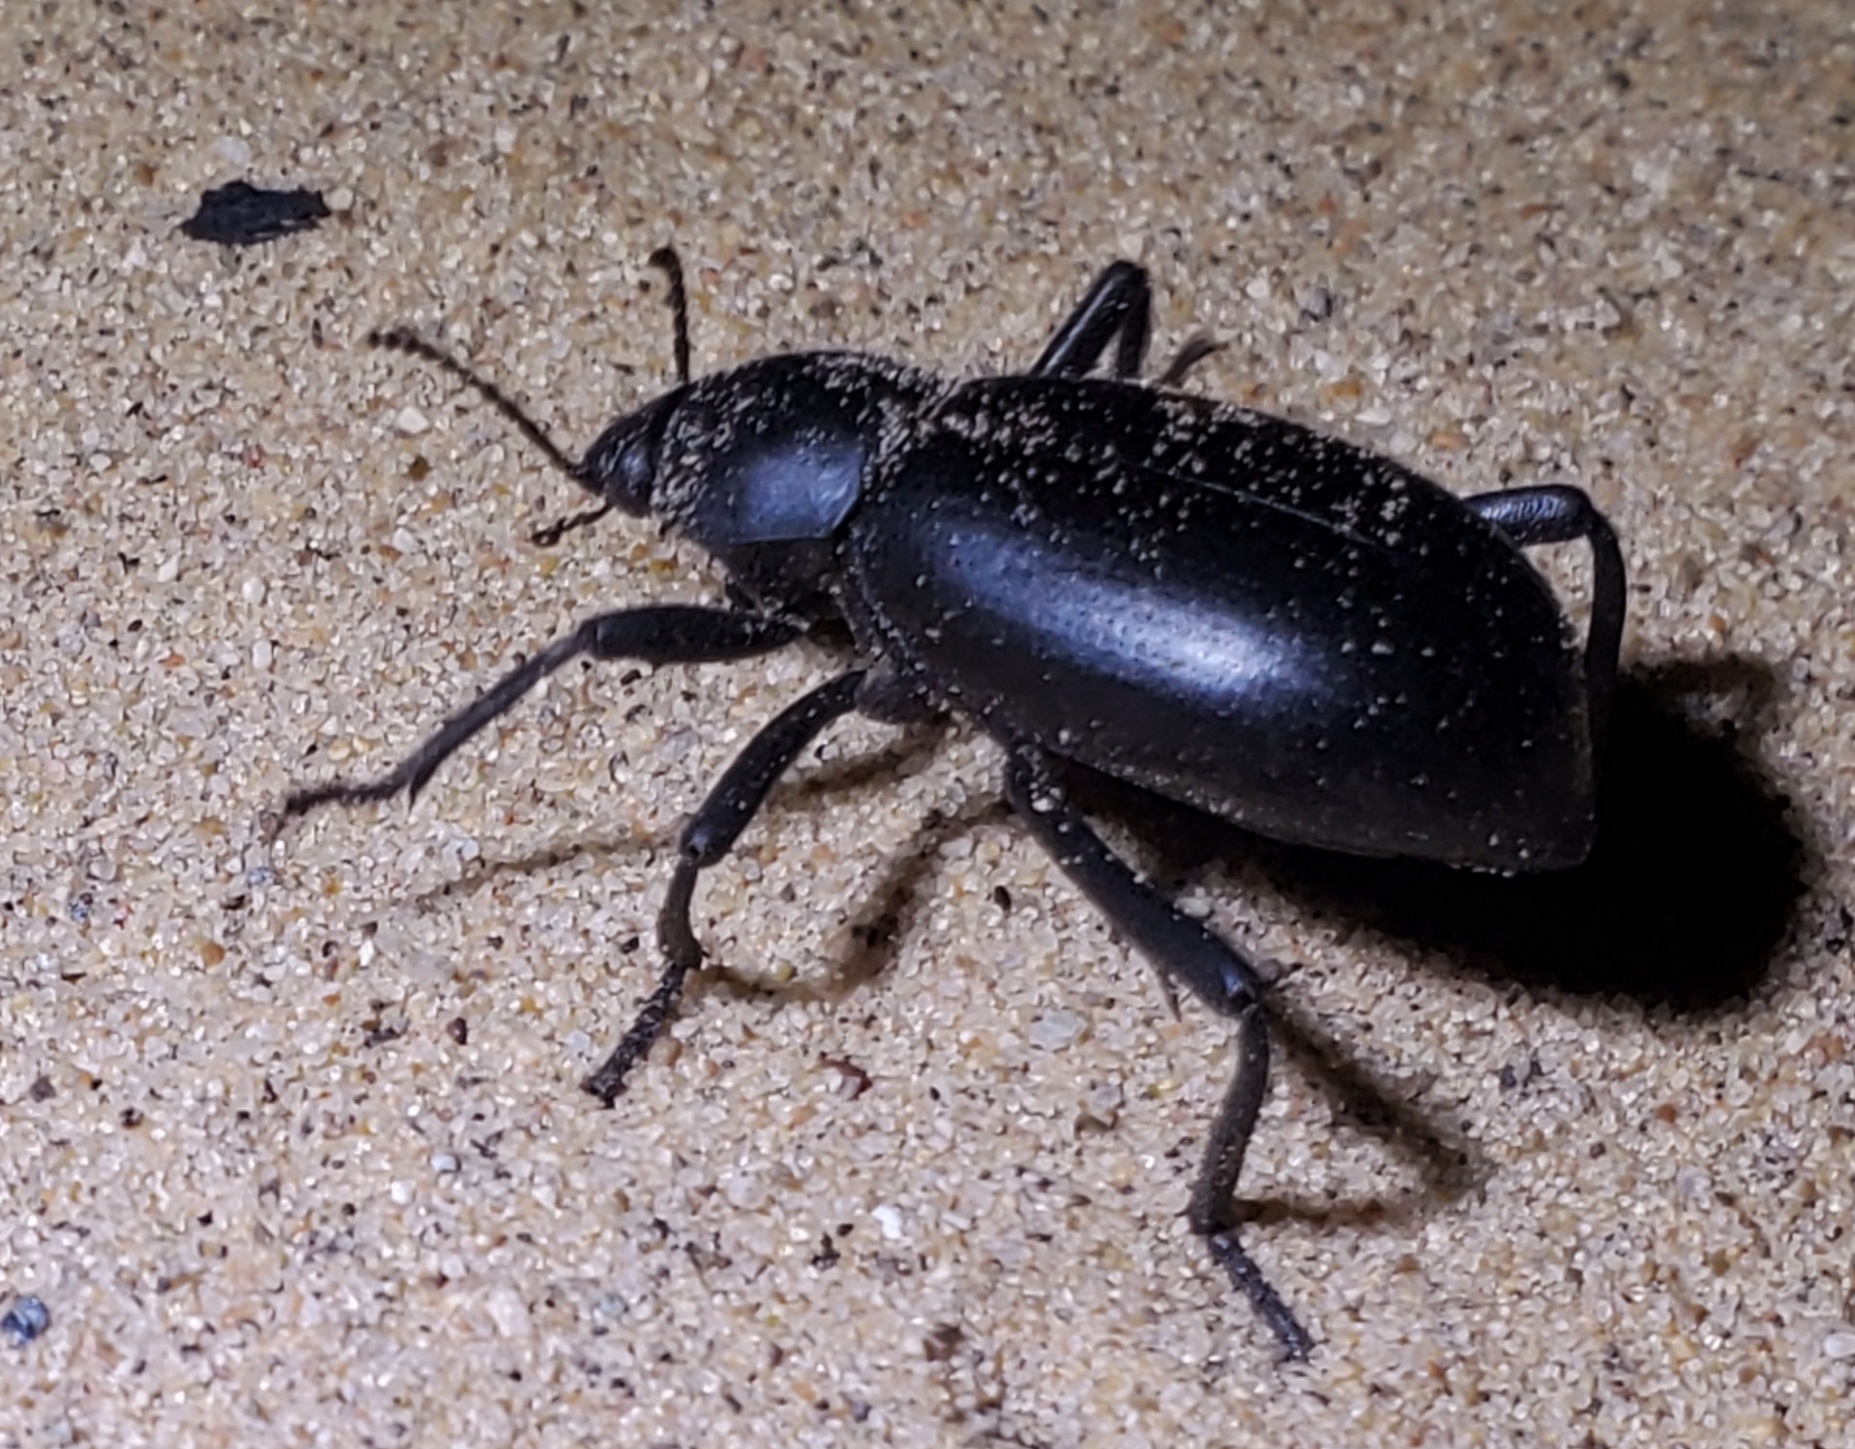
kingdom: Animalia
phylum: Arthropoda
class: Insecta
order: Coleoptera
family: Tenebrionidae
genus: Eleodes
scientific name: Eleodes armata
